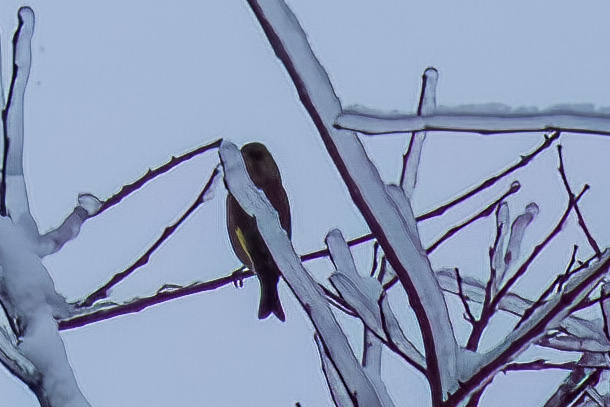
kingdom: Plantae
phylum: Tracheophyta
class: Liliopsida
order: Poales
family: Poaceae
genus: Chloris
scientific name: Chloris chloris
